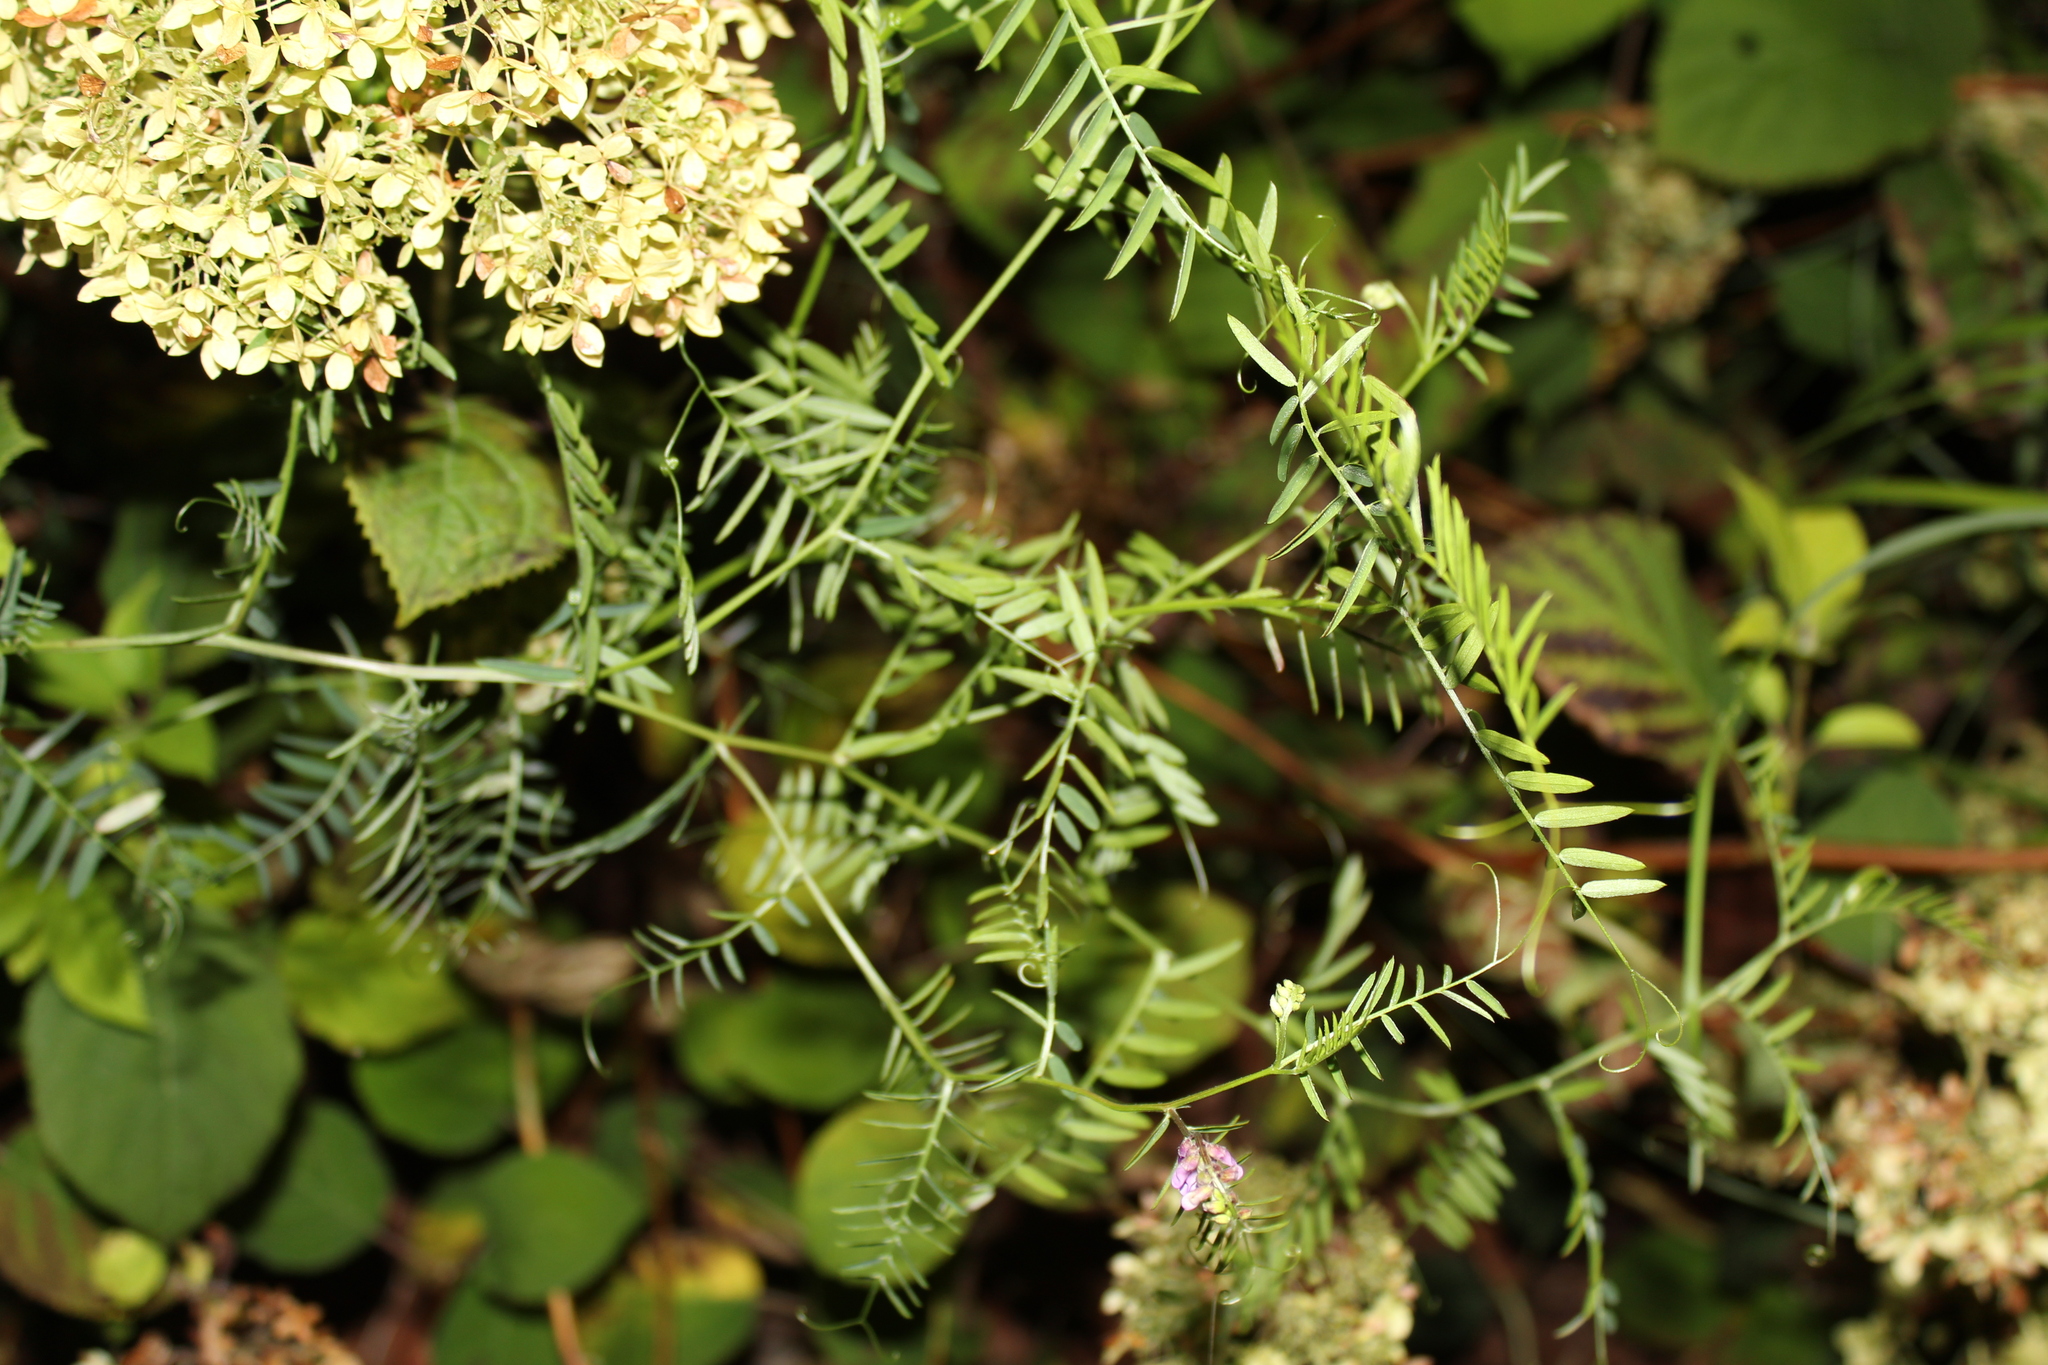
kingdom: Plantae
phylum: Tracheophyta
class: Magnoliopsida
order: Fabales
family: Fabaceae
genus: Vicia
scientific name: Vicia cracca
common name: Bird vetch
